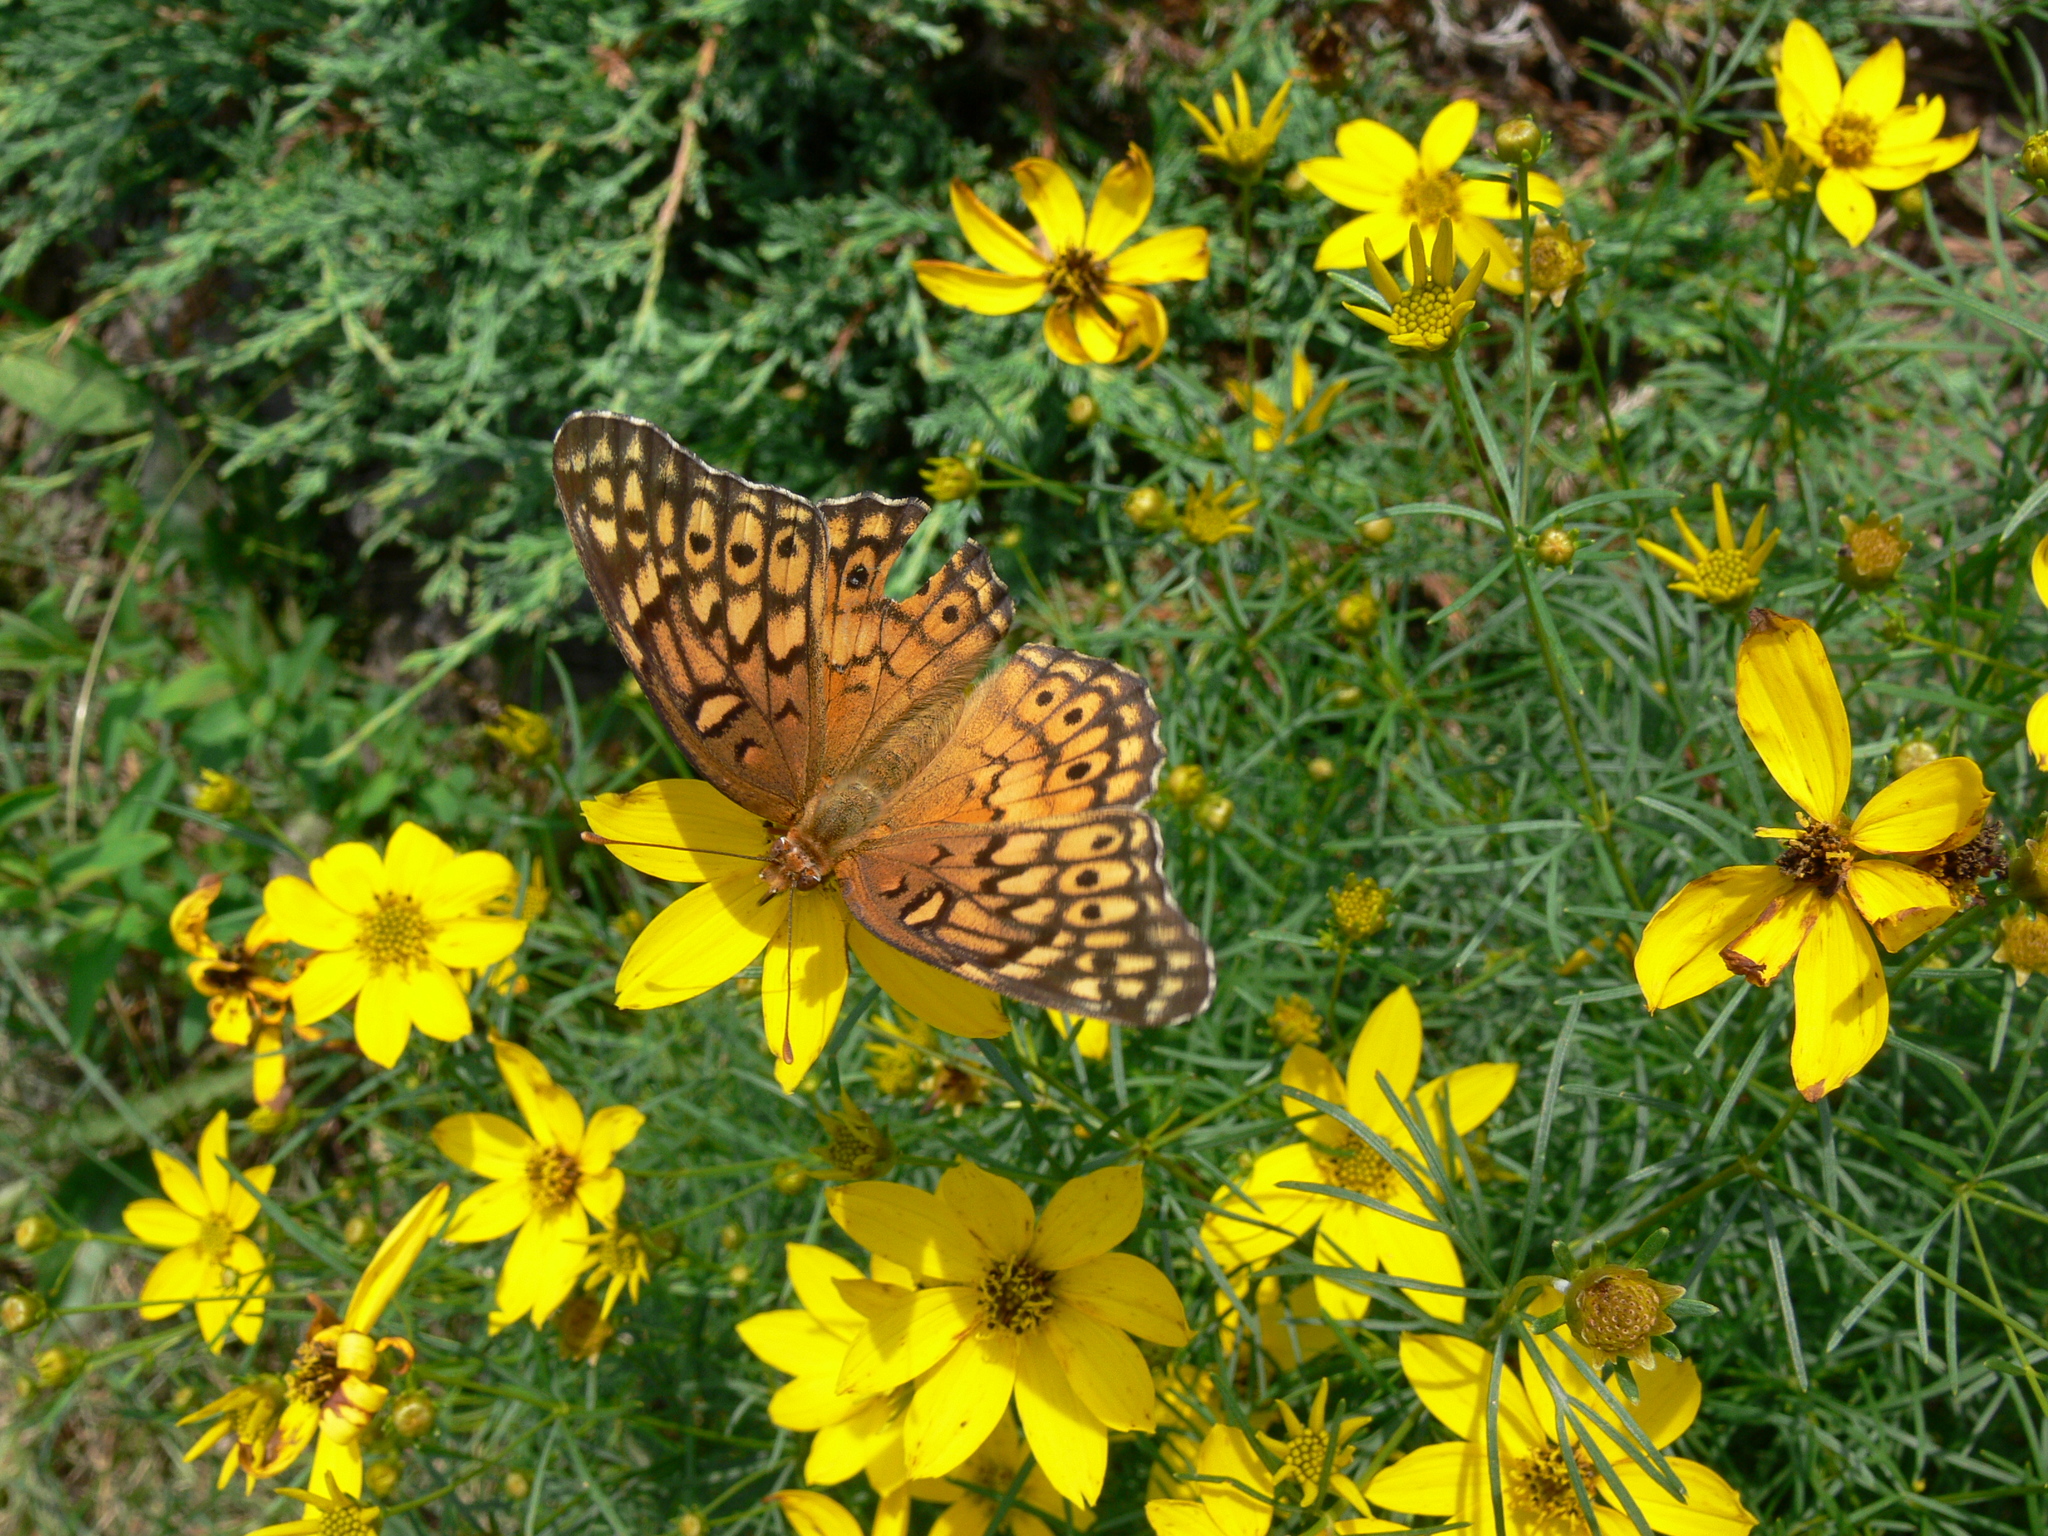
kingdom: Animalia
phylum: Arthropoda
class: Insecta
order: Lepidoptera
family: Nymphalidae
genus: Euptoieta
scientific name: Euptoieta claudia
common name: Variegated fritillary
